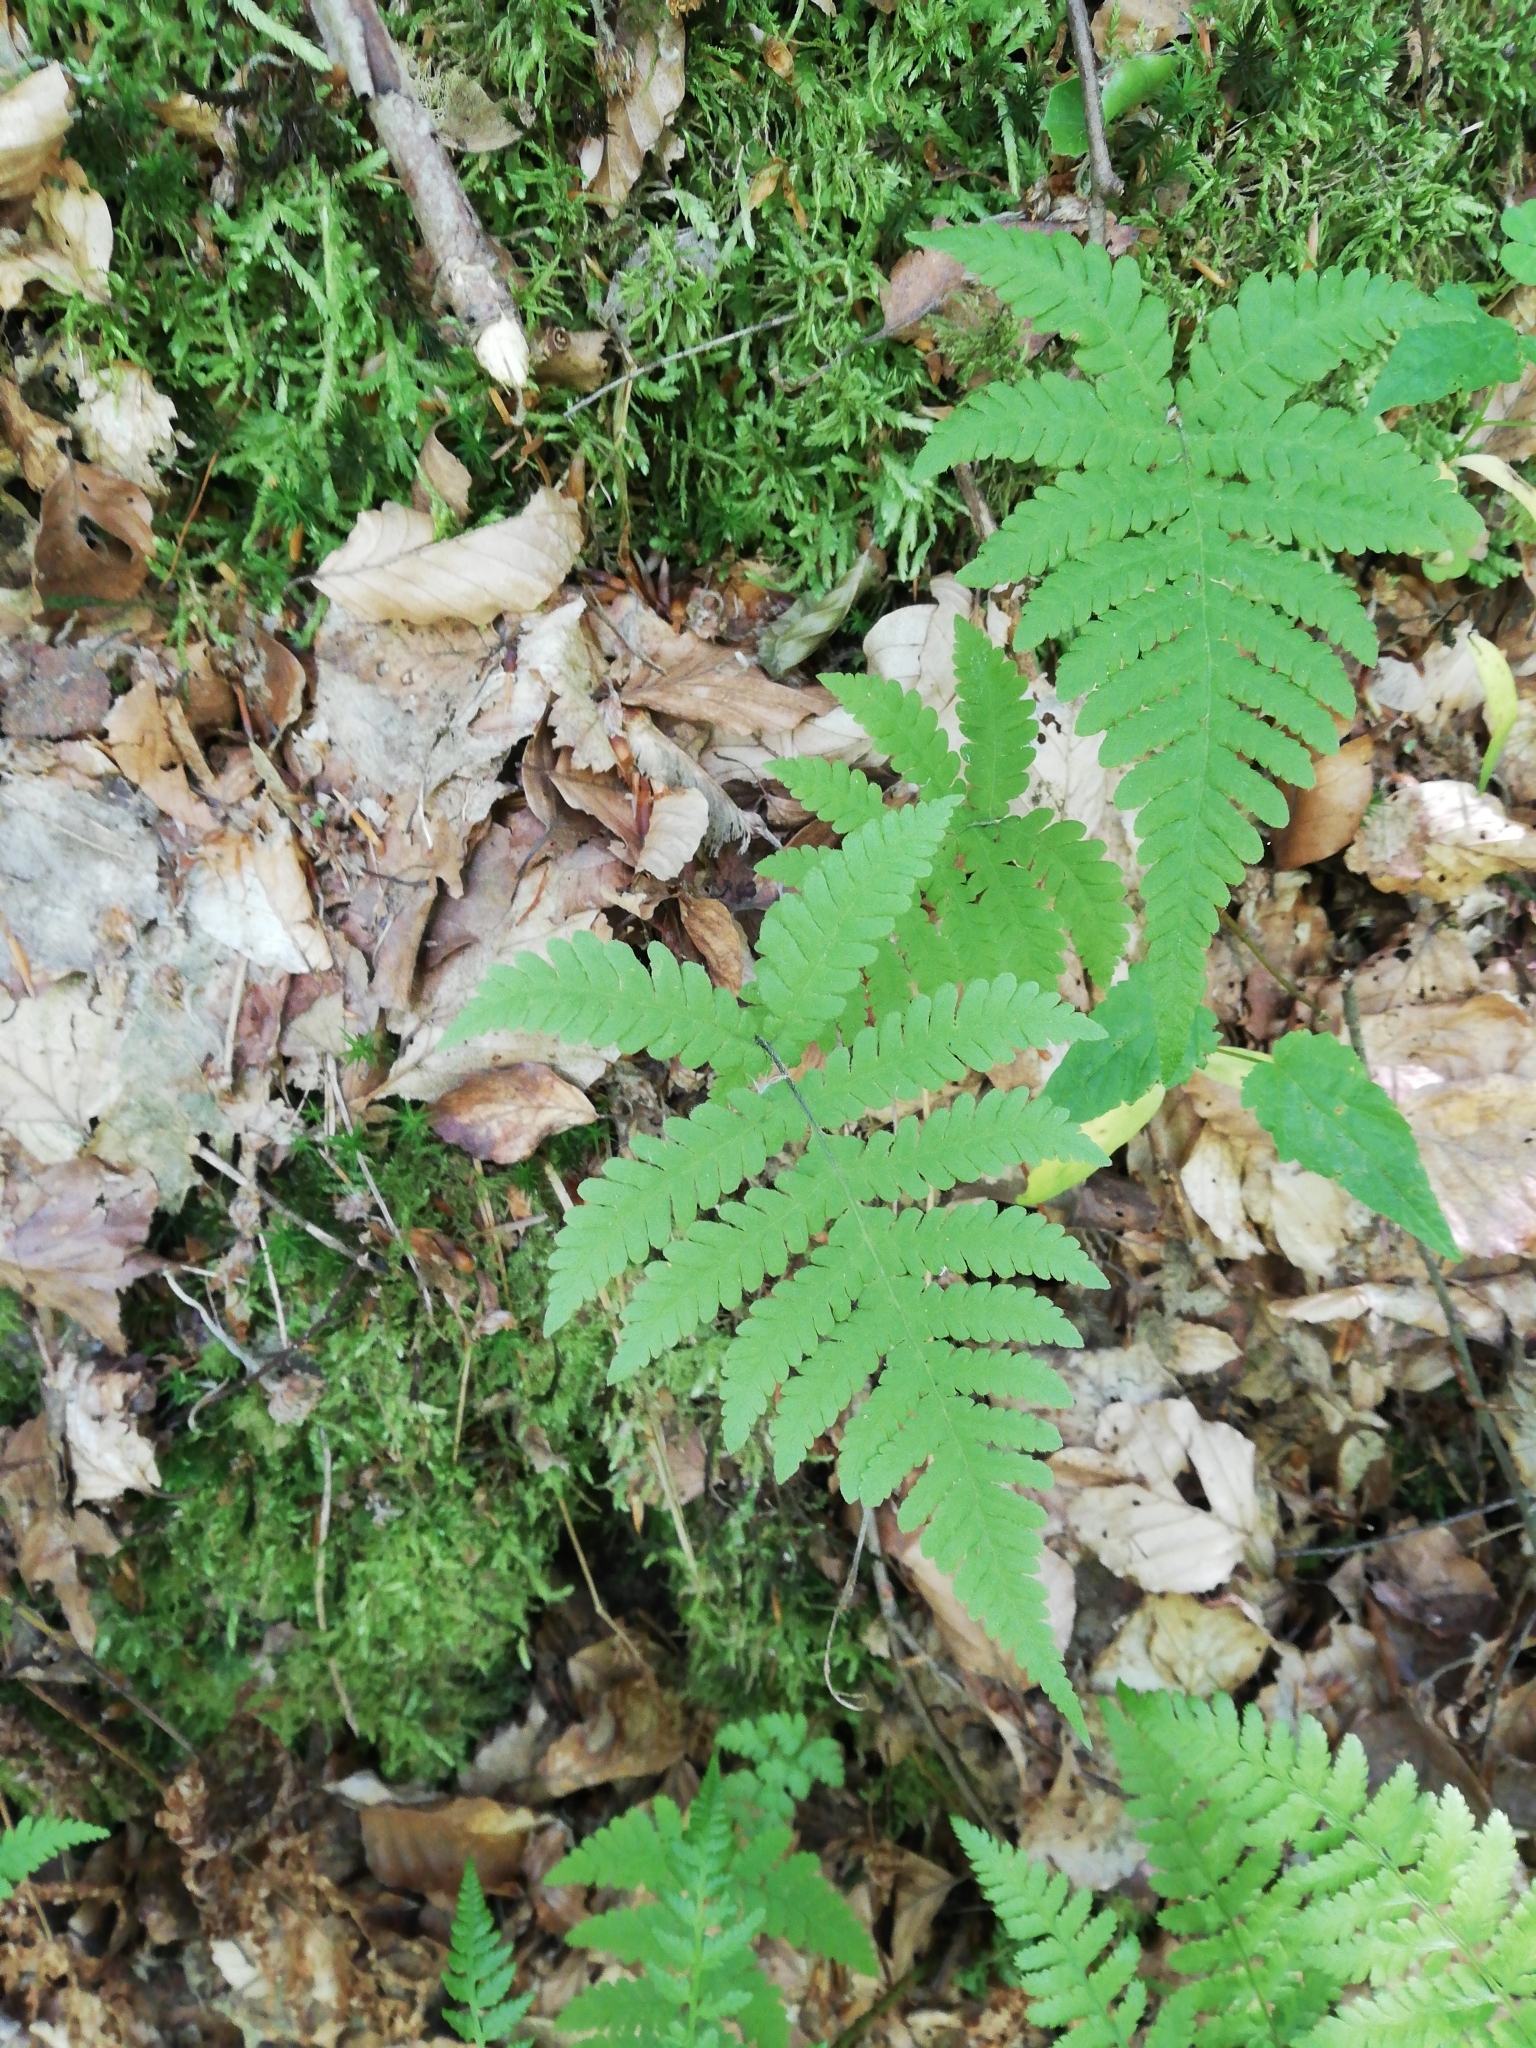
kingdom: Plantae
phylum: Tracheophyta
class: Polypodiopsida
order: Polypodiales
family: Thelypteridaceae
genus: Phegopteris
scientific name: Phegopteris connectilis
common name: Beech fern
